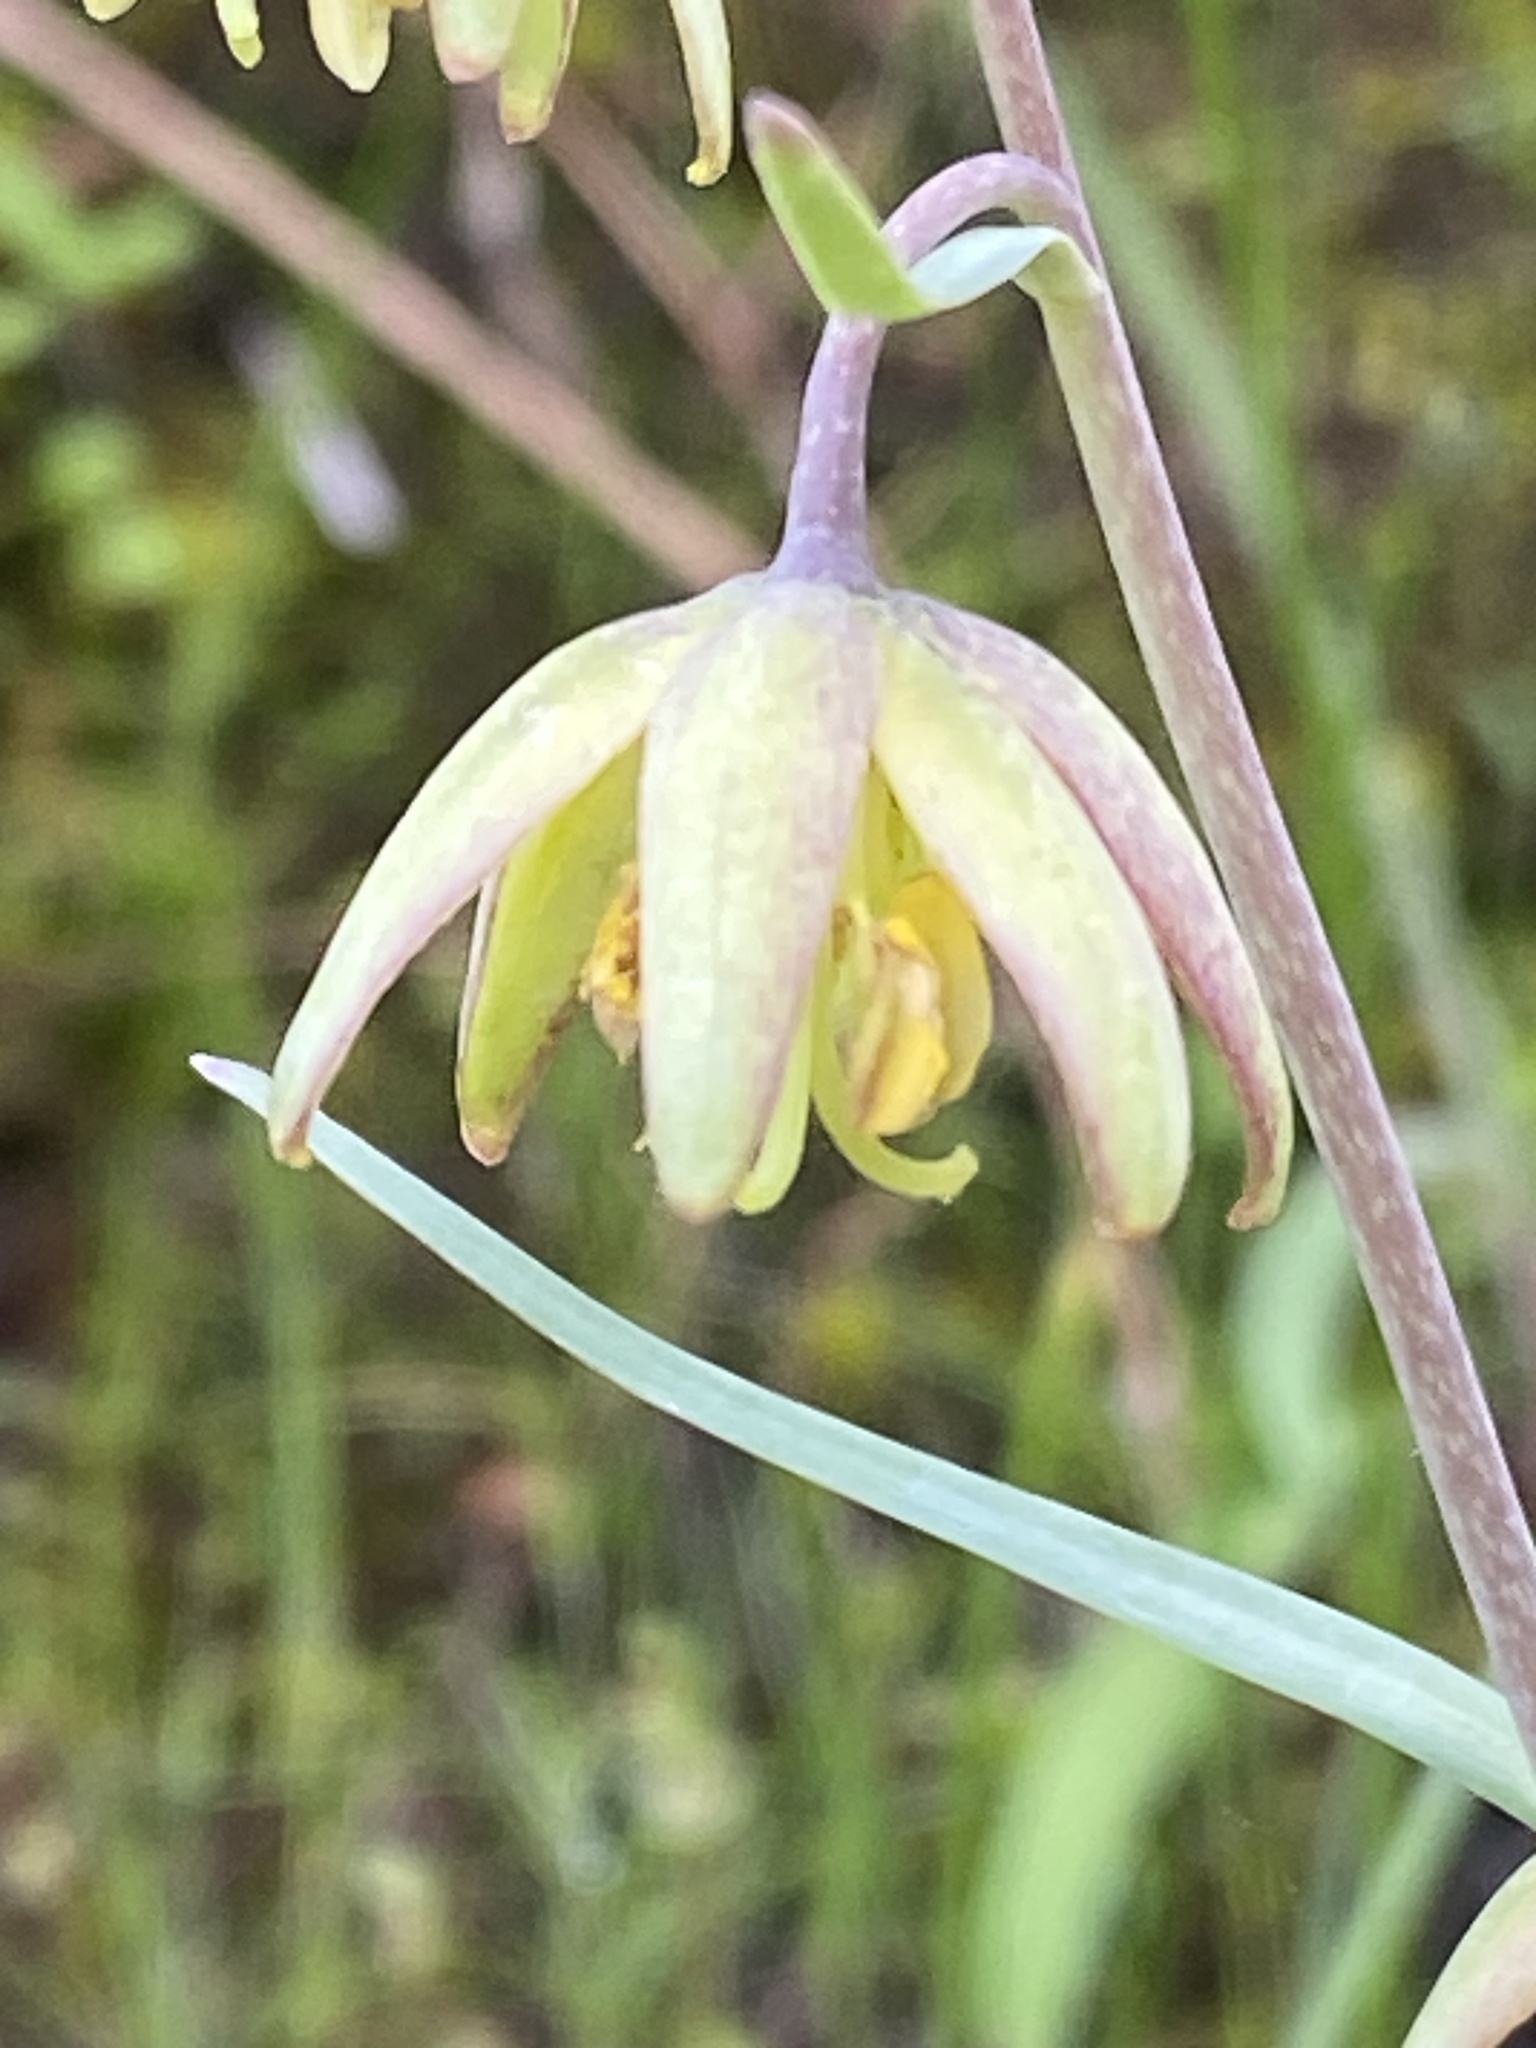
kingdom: Plantae
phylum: Tracheophyta
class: Liliopsida
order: Liliales
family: Liliaceae
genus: Fritillaria
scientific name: Fritillaria micrantha
